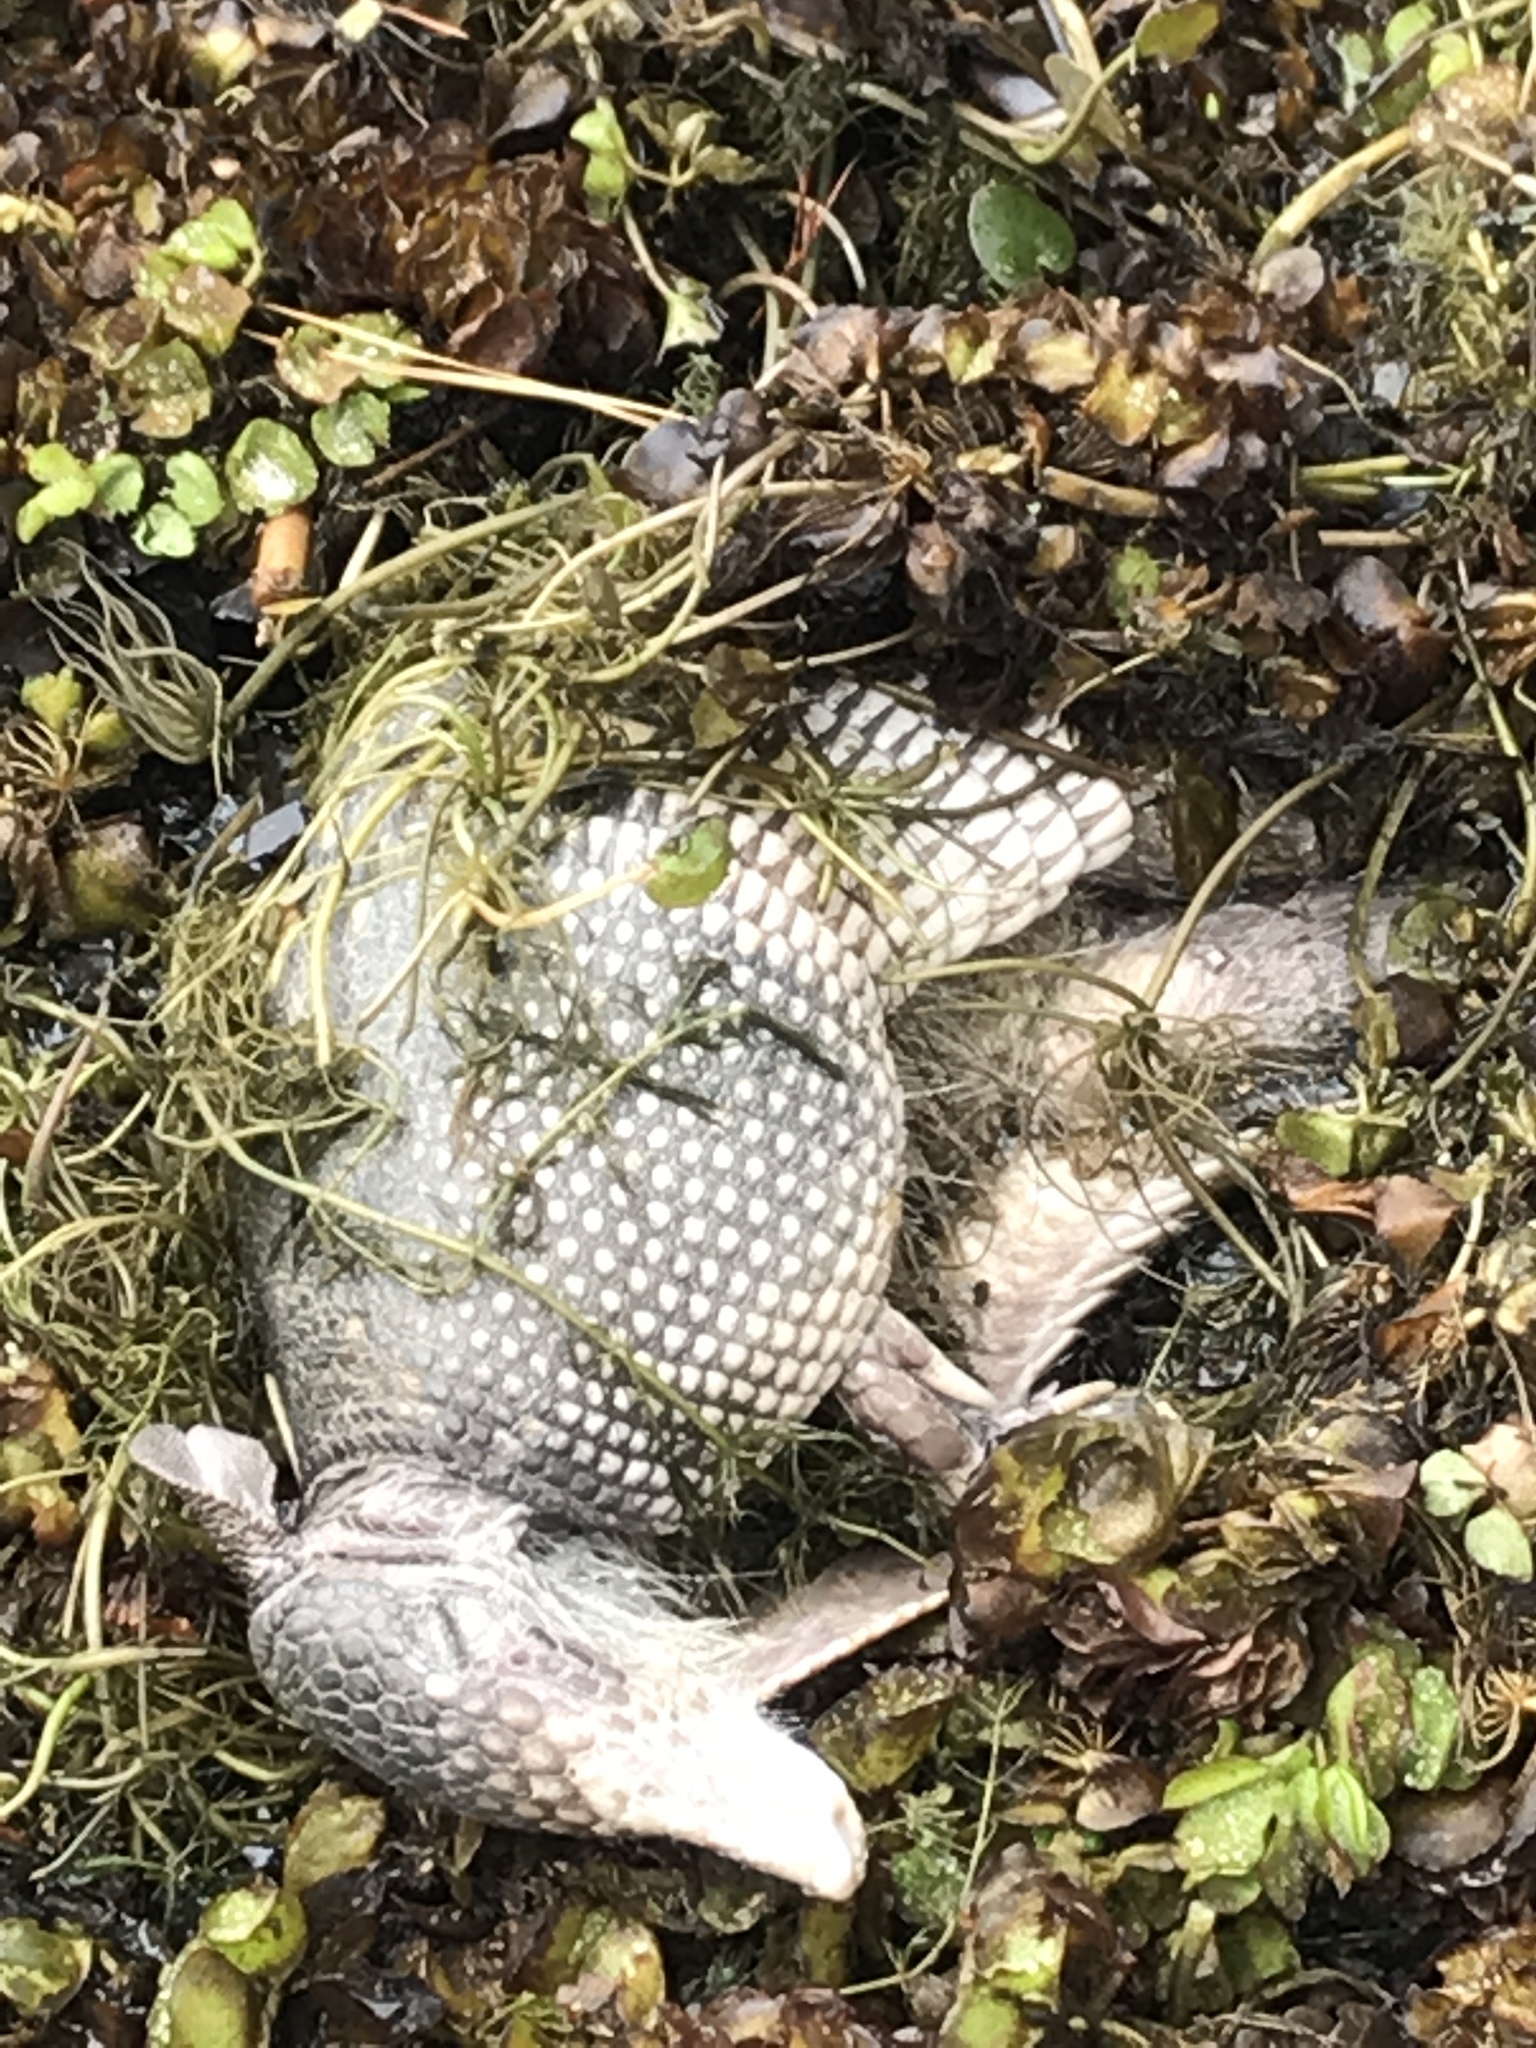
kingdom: Animalia
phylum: Chordata
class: Mammalia
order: Cingulata
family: Dasypodidae
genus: Dasypus
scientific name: Dasypus novemcinctus
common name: Nine-banded armadillo
